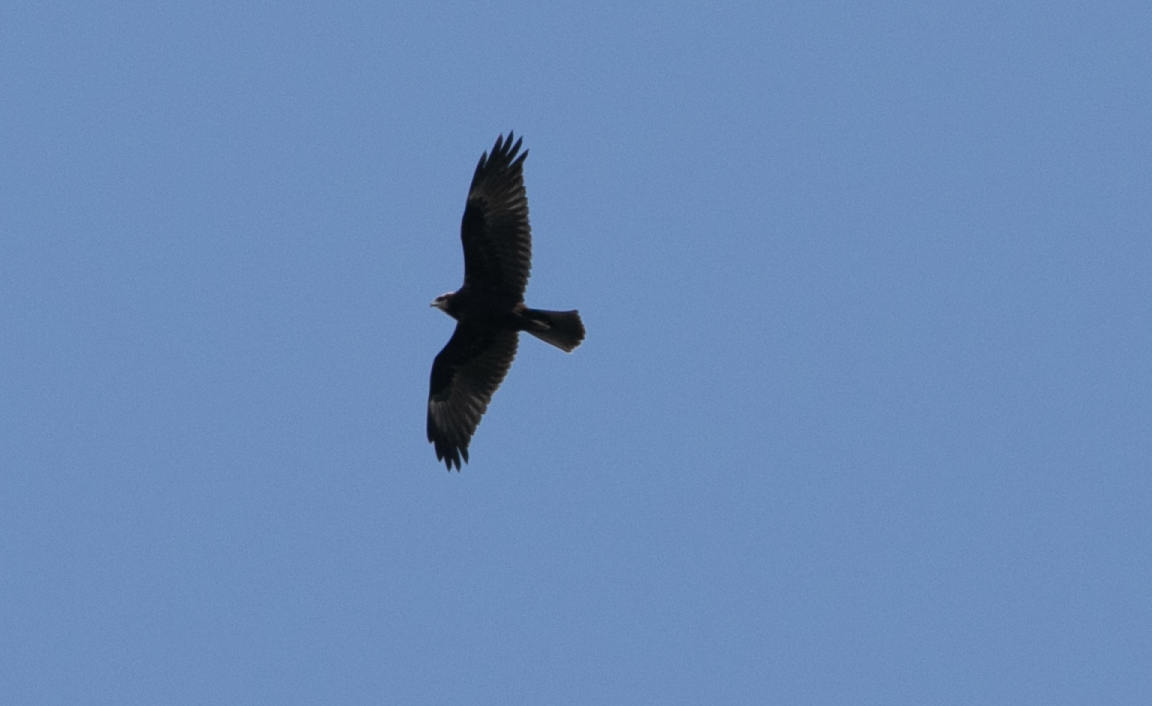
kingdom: Animalia
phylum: Chordata
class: Aves
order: Accipitriformes
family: Accipitridae
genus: Circus
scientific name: Circus aeruginosus
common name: Western marsh harrier
